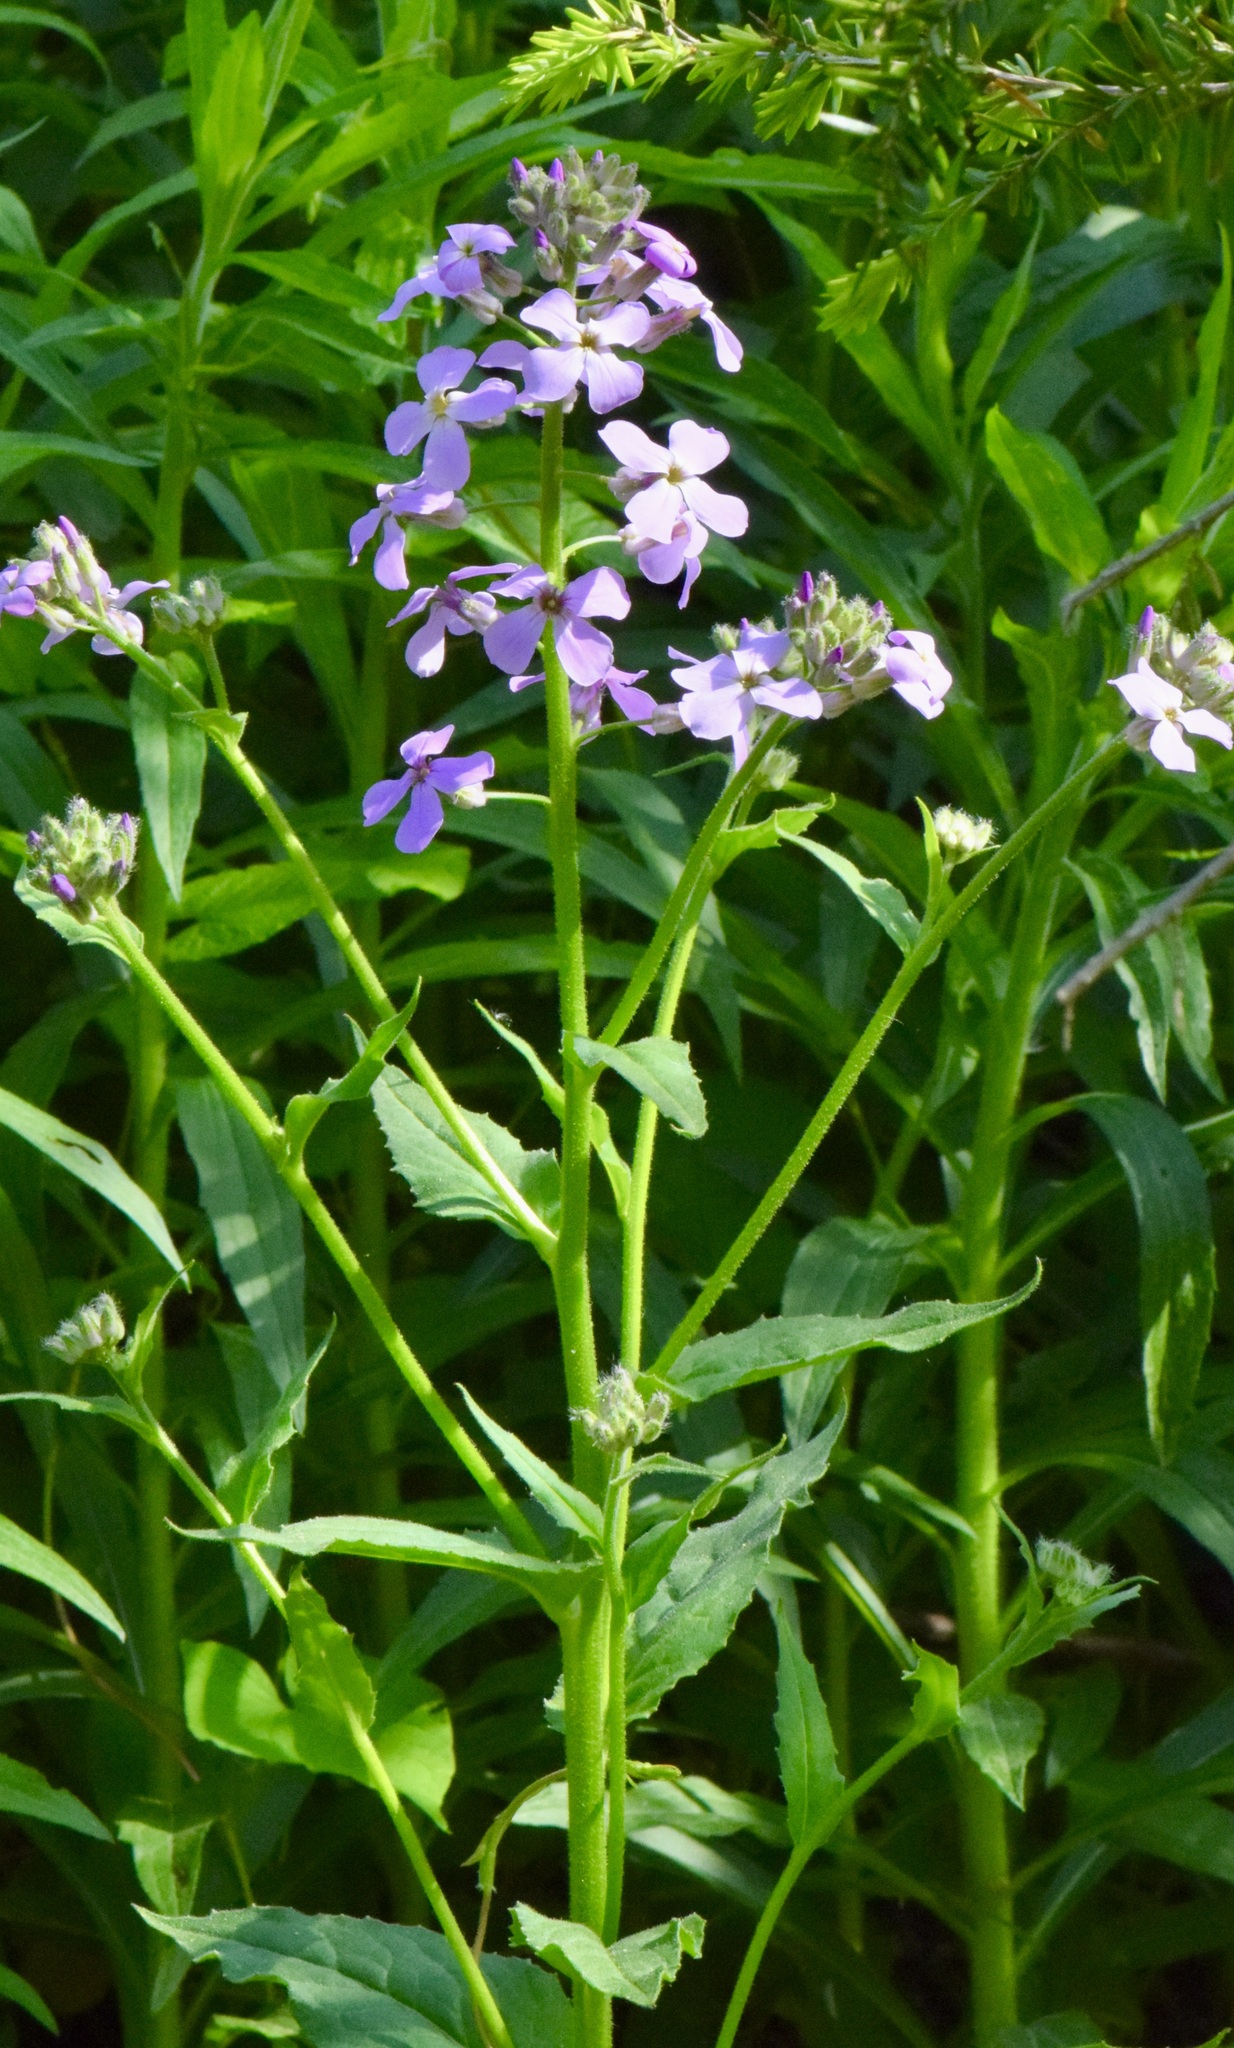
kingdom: Plantae
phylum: Tracheophyta
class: Magnoliopsida
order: Brassicales
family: Brassicaceae
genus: Hesperis
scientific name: Hesperis matronalis
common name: Dame's-violet
